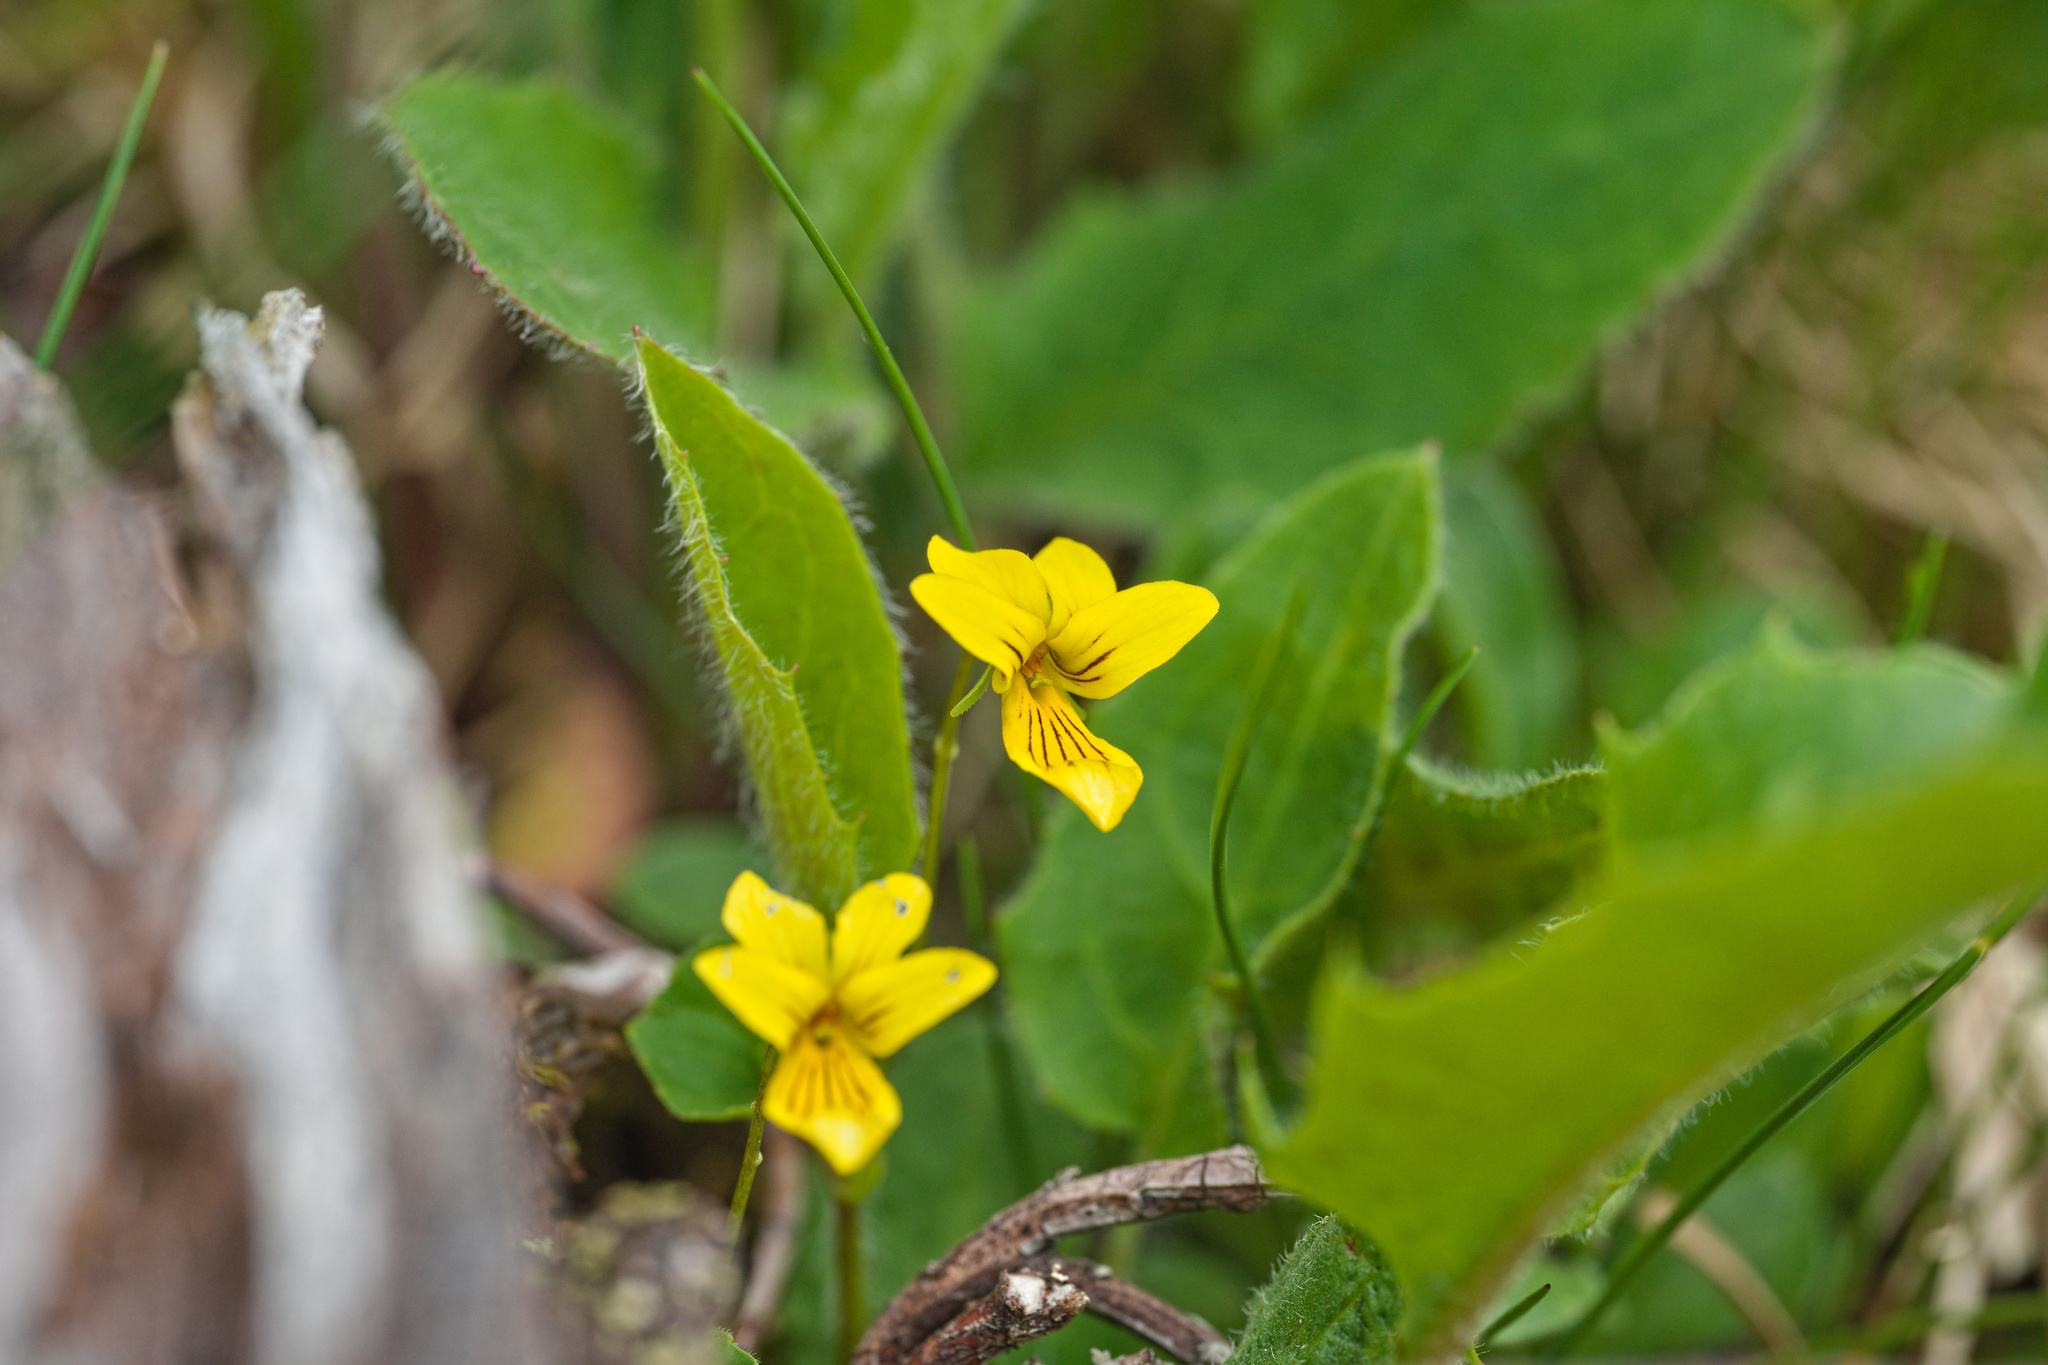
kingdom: Plantae
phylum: Tracheophyta
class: Magnoliopsida
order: Malpighiales
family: Violaceae
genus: Viola
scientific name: Viola biflora
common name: Alpine yellow violet
